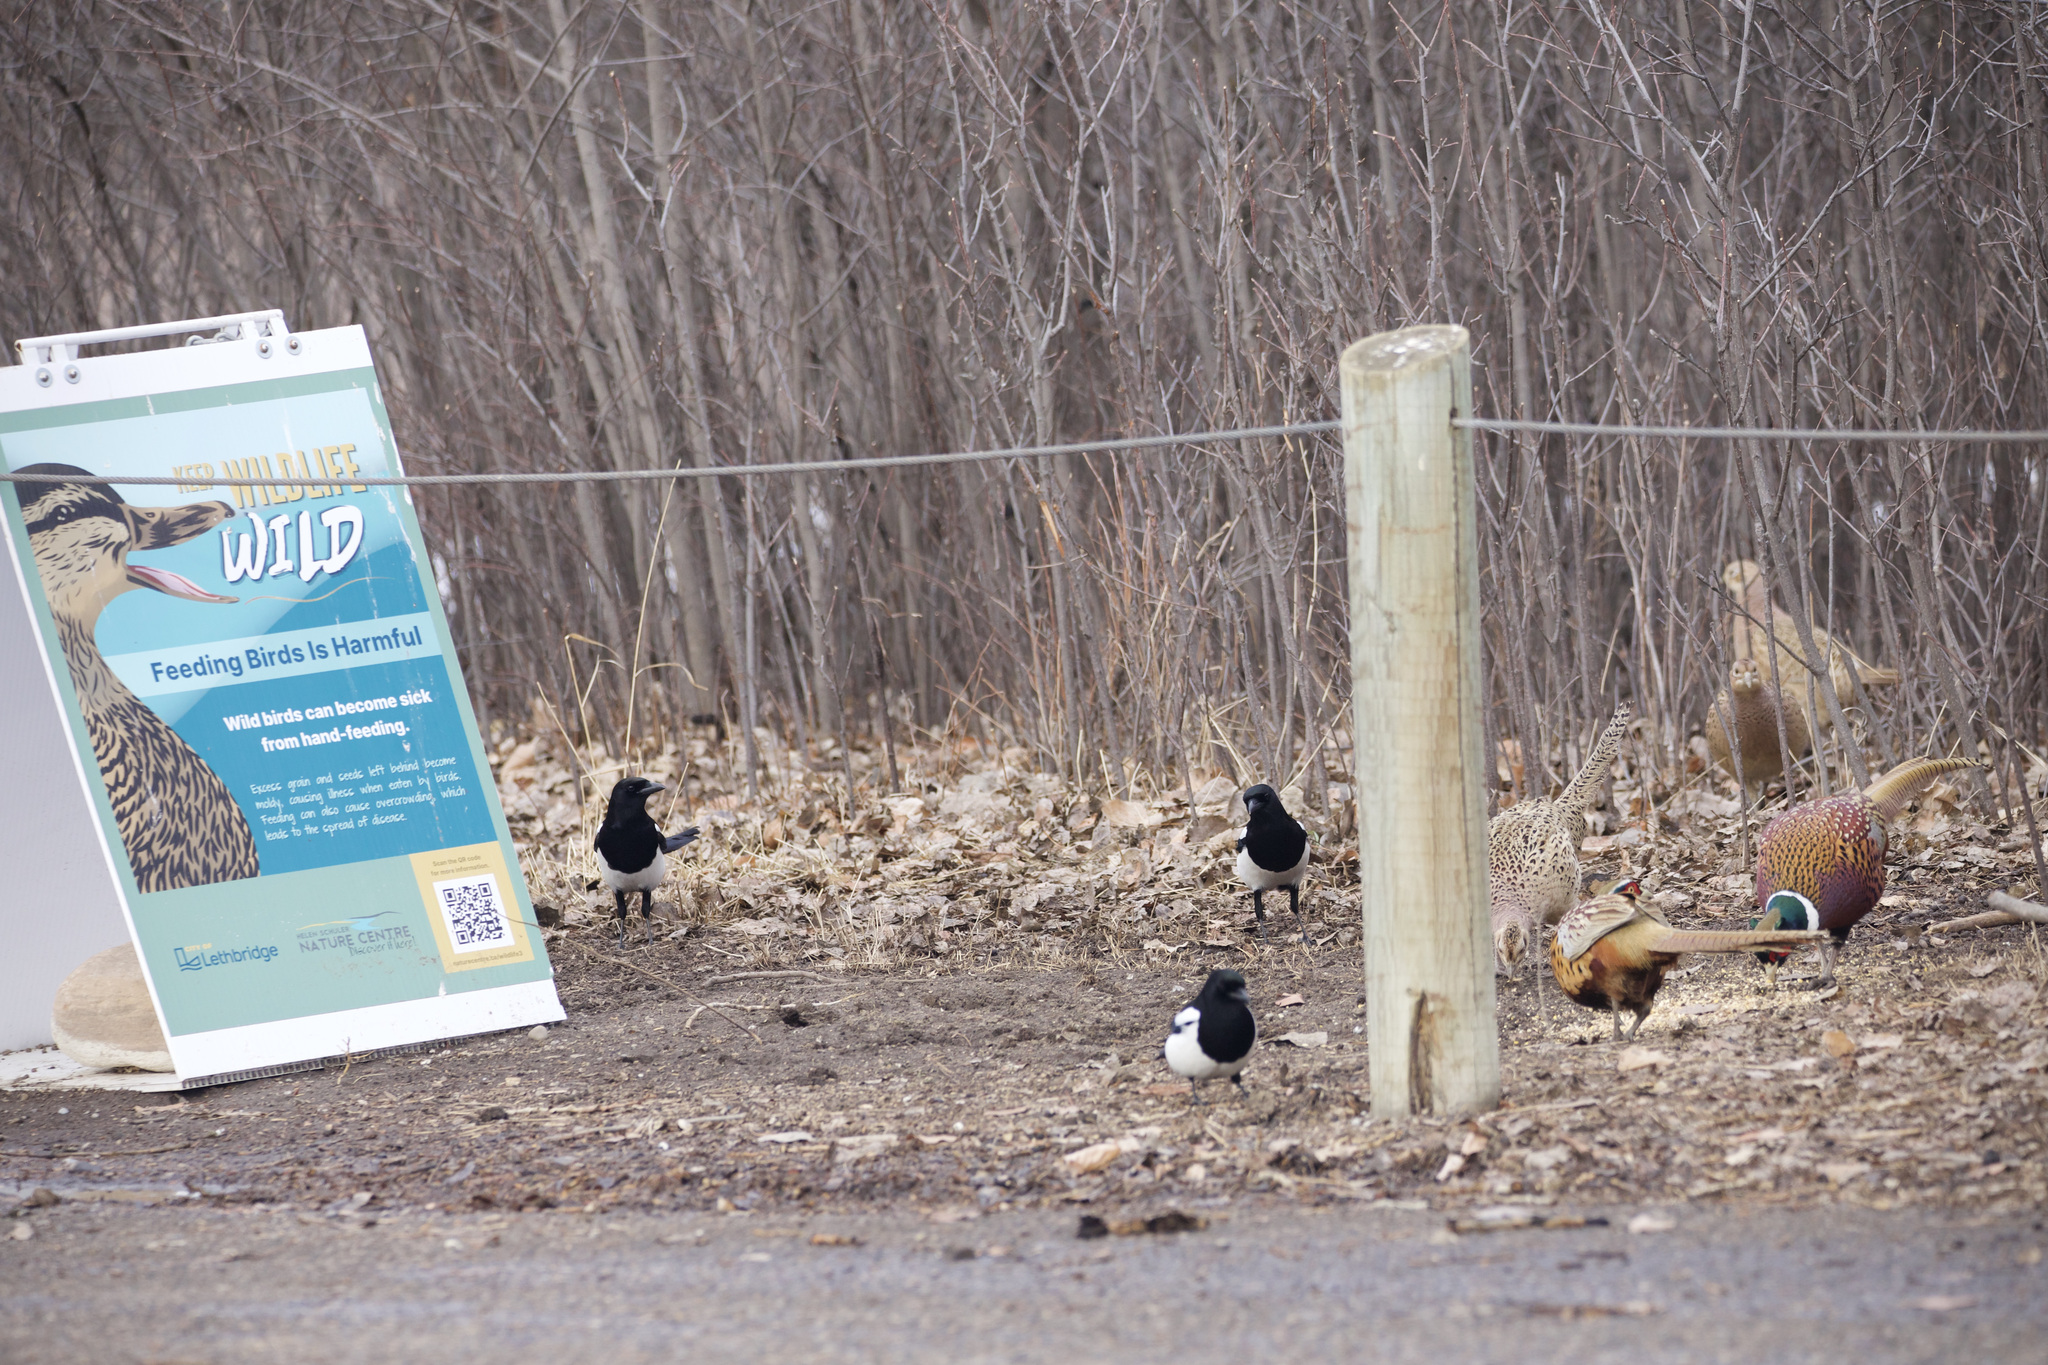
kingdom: Animalia
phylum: Chordata
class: Aves
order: Galliformes
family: Phasianidae
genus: Phasianus
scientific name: Phasianus colchicus
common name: Common pheasant
